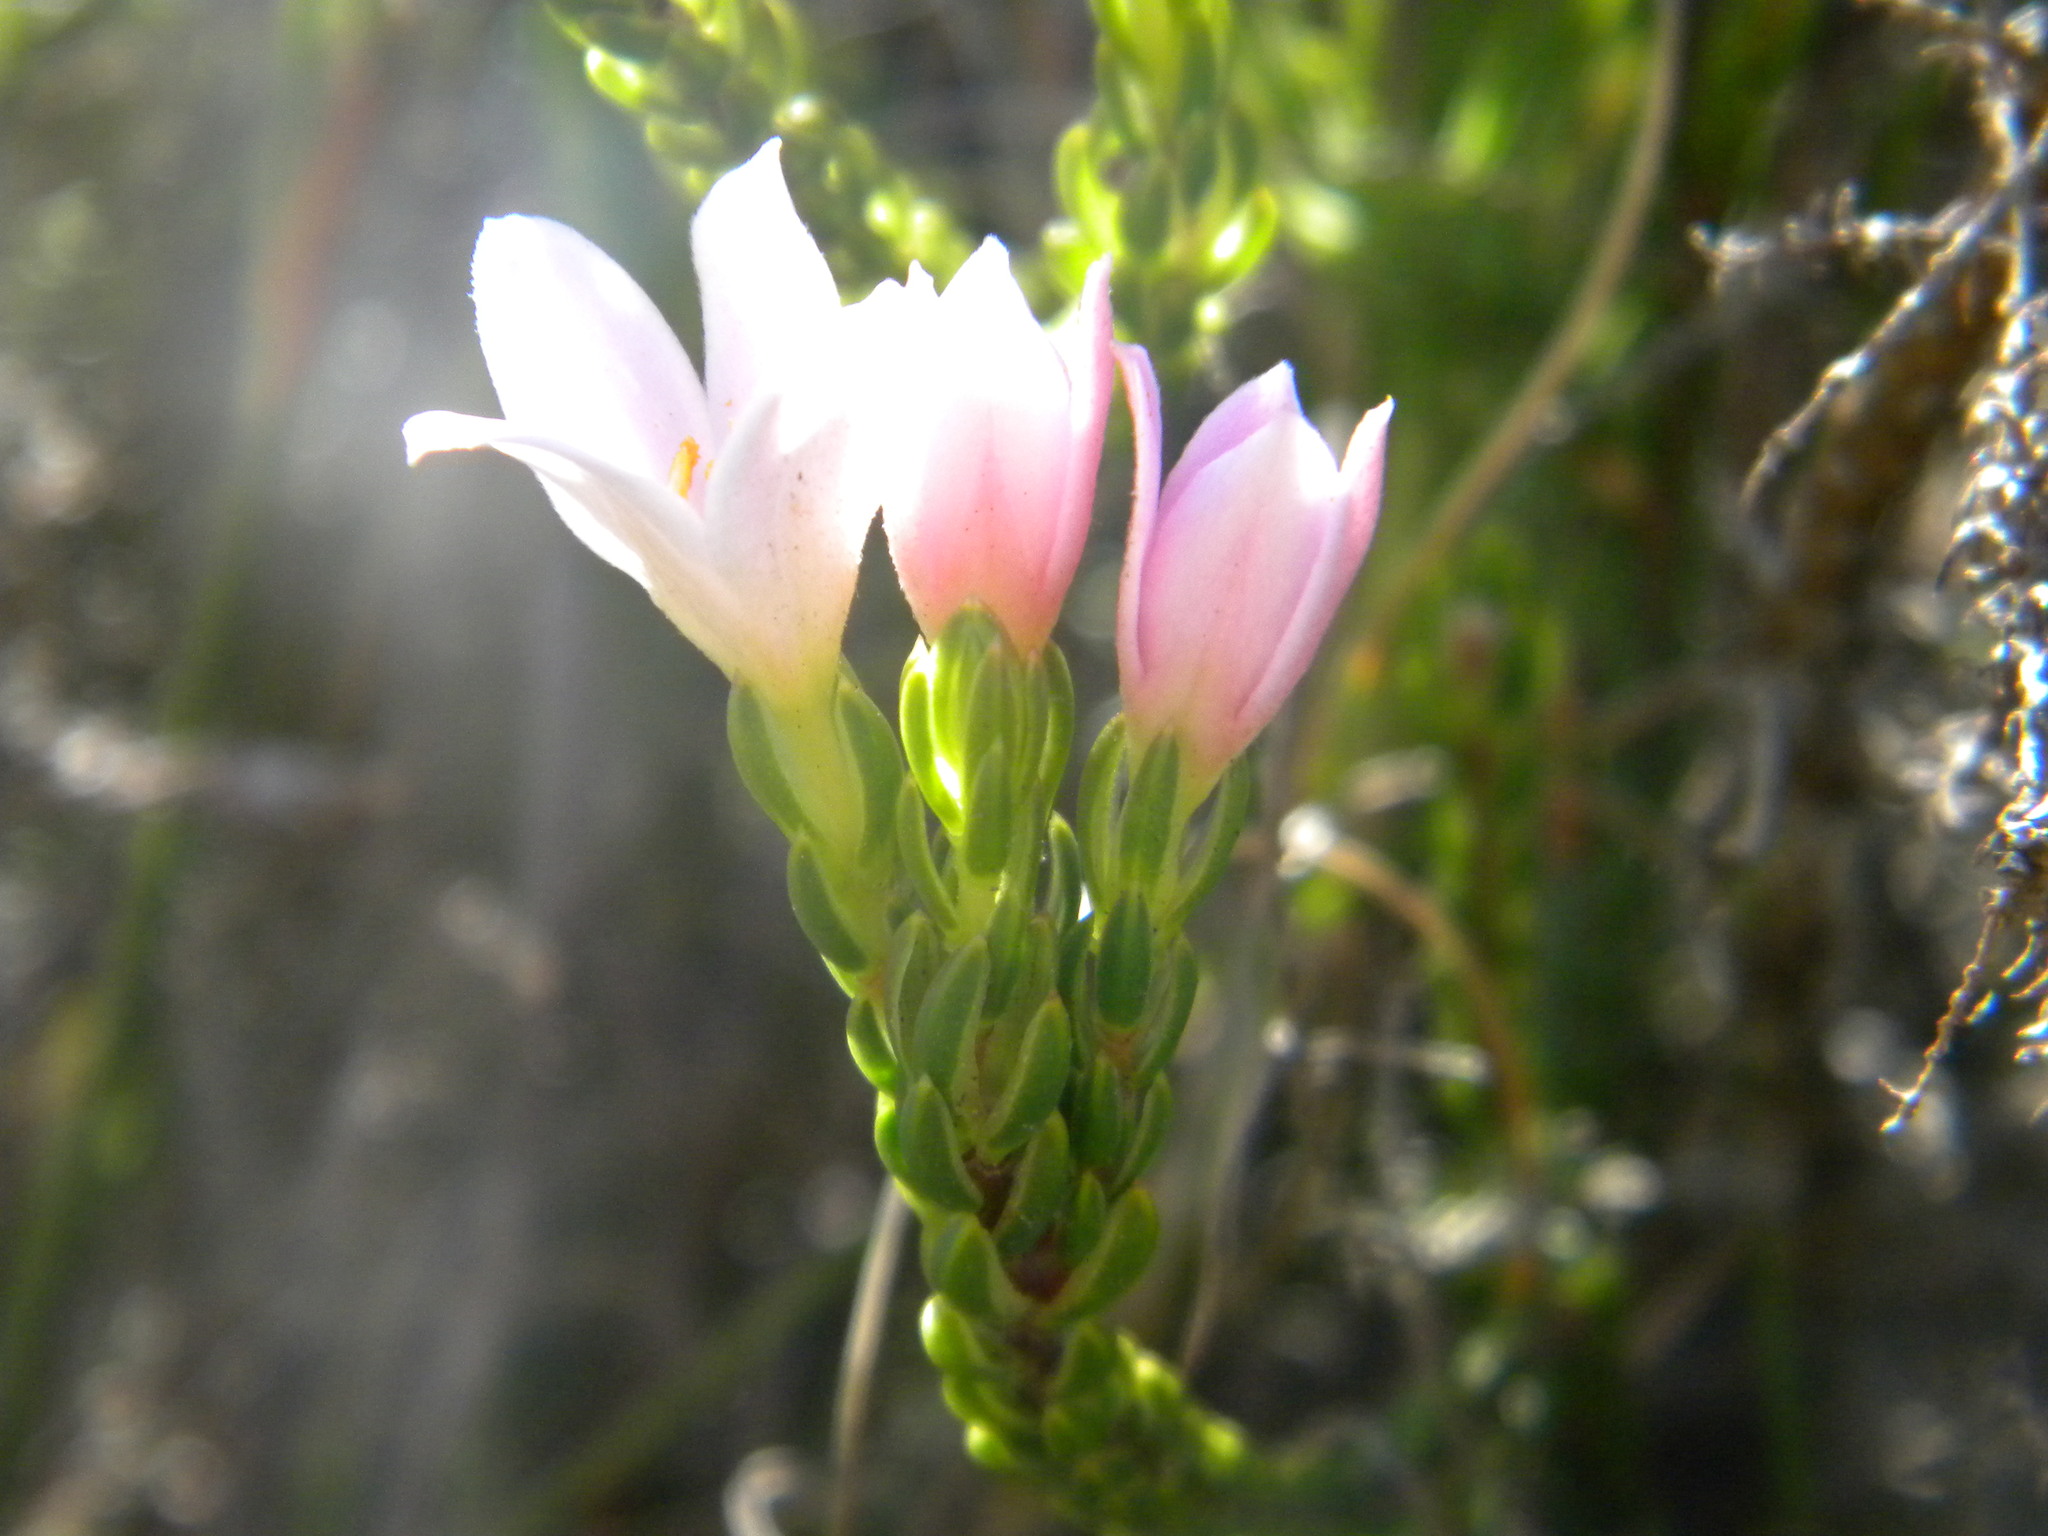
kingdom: Plantae
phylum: Tracheophyta
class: Magnoliopsida
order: Malvales
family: Thymelaeaceae
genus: Lachnaea
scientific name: Lachnaea grandiflora
